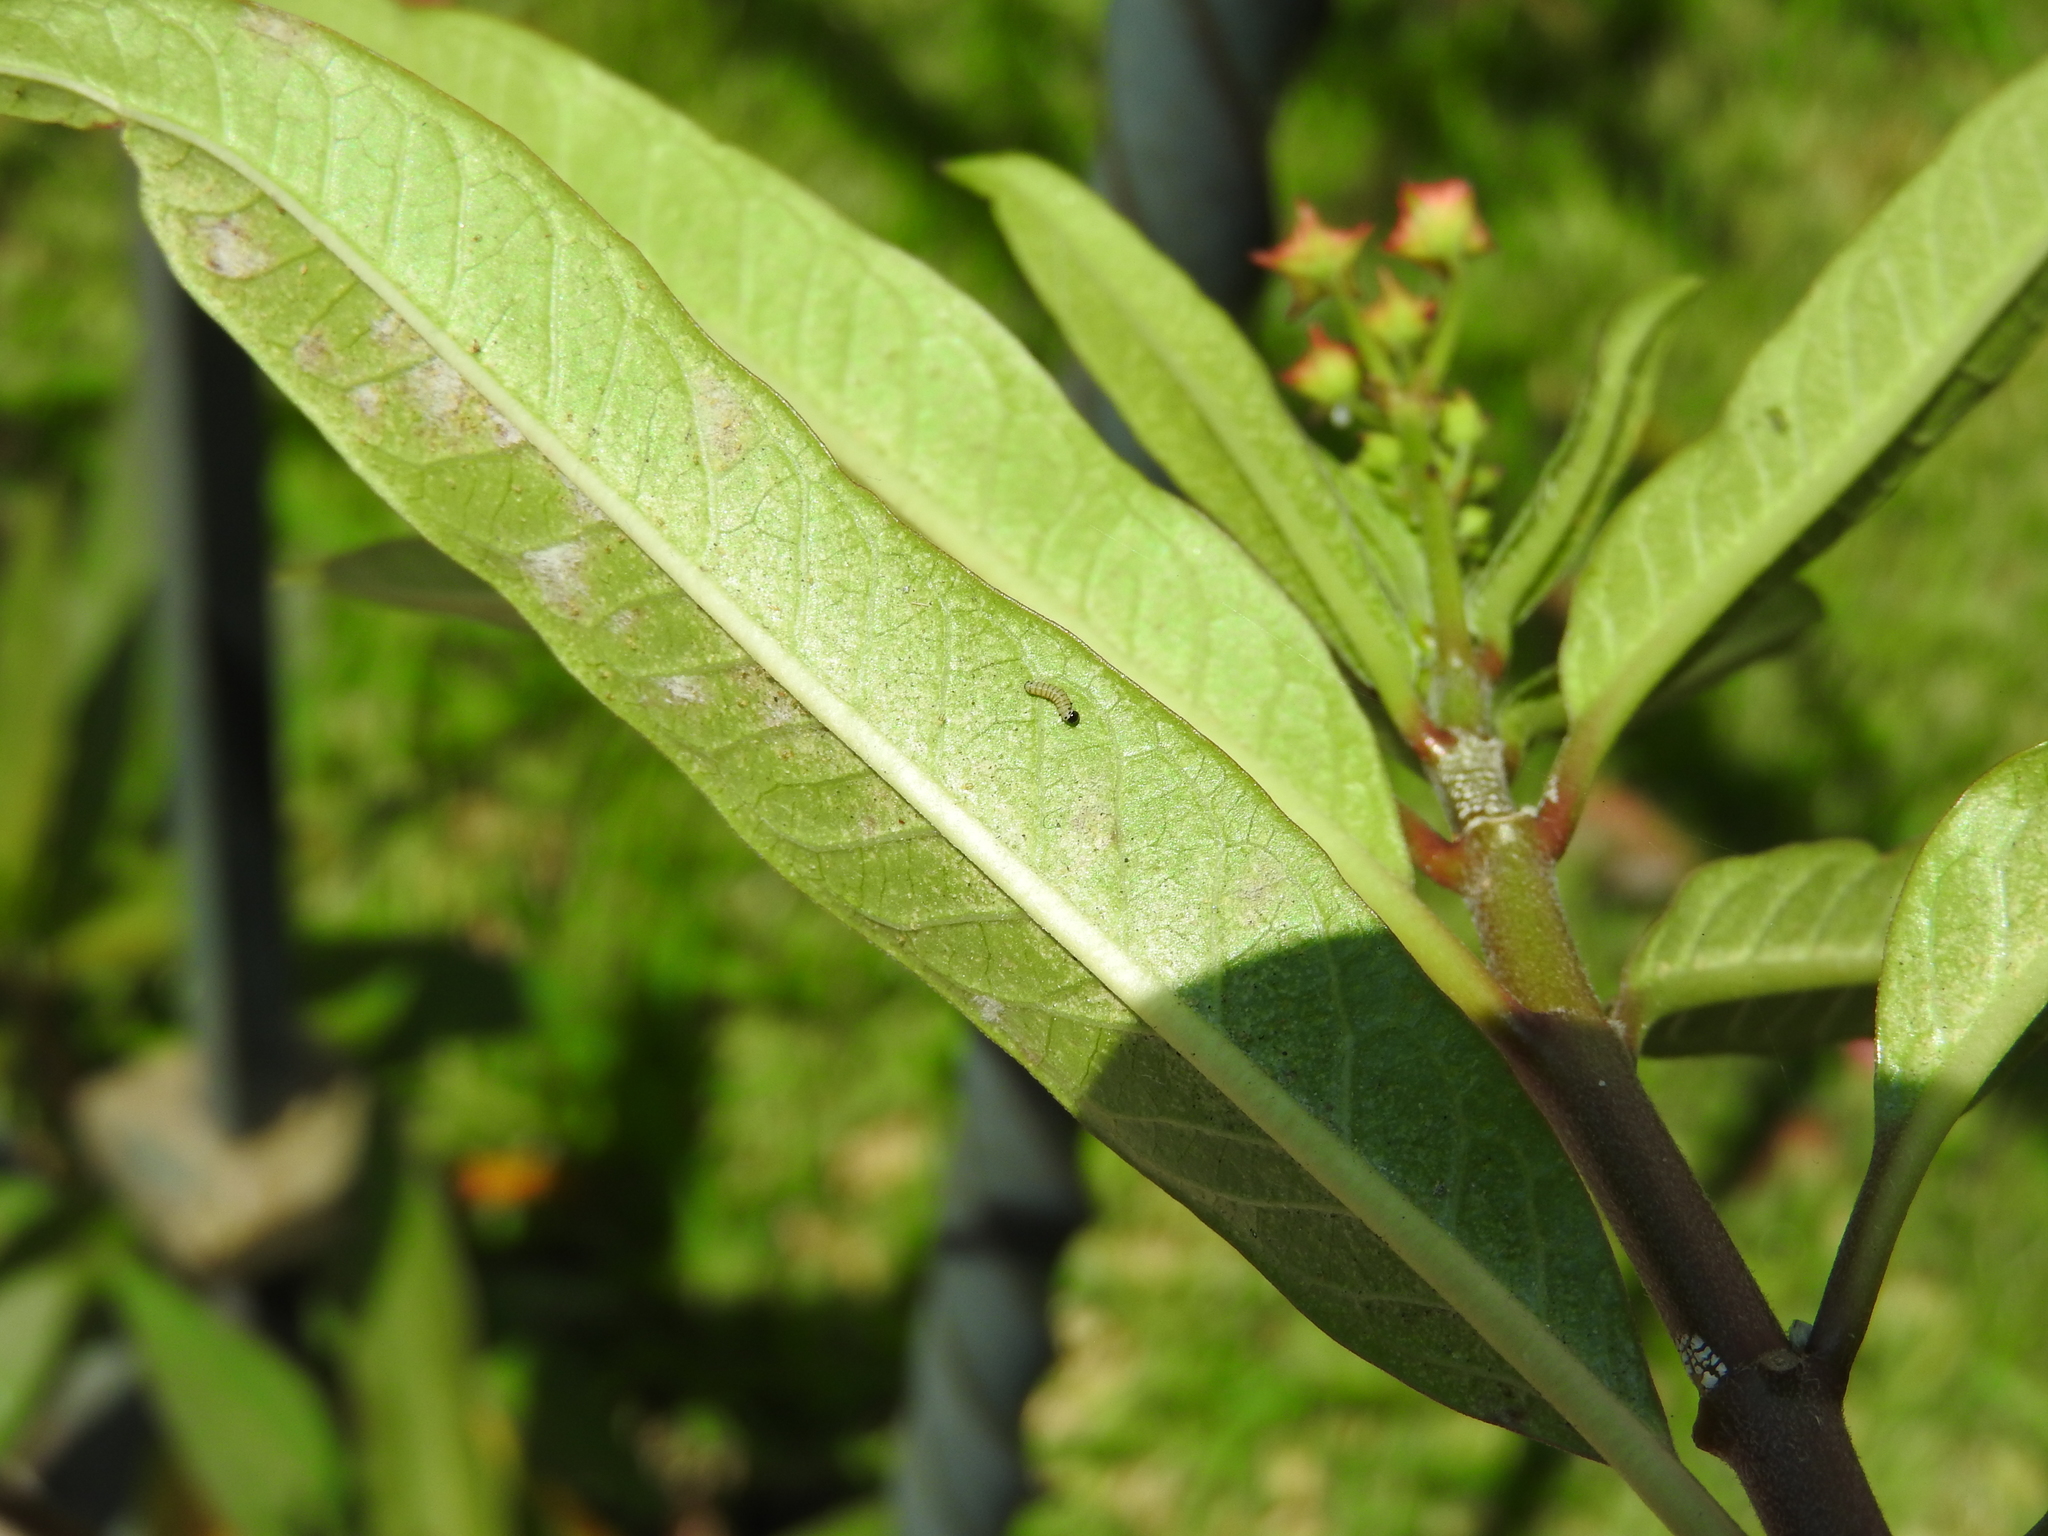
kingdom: Animalia
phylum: Arthropoda
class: Insecta
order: Lepidoptera
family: Nymphalidae
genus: Danaus
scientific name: Danaus plexippus
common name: Monarch
